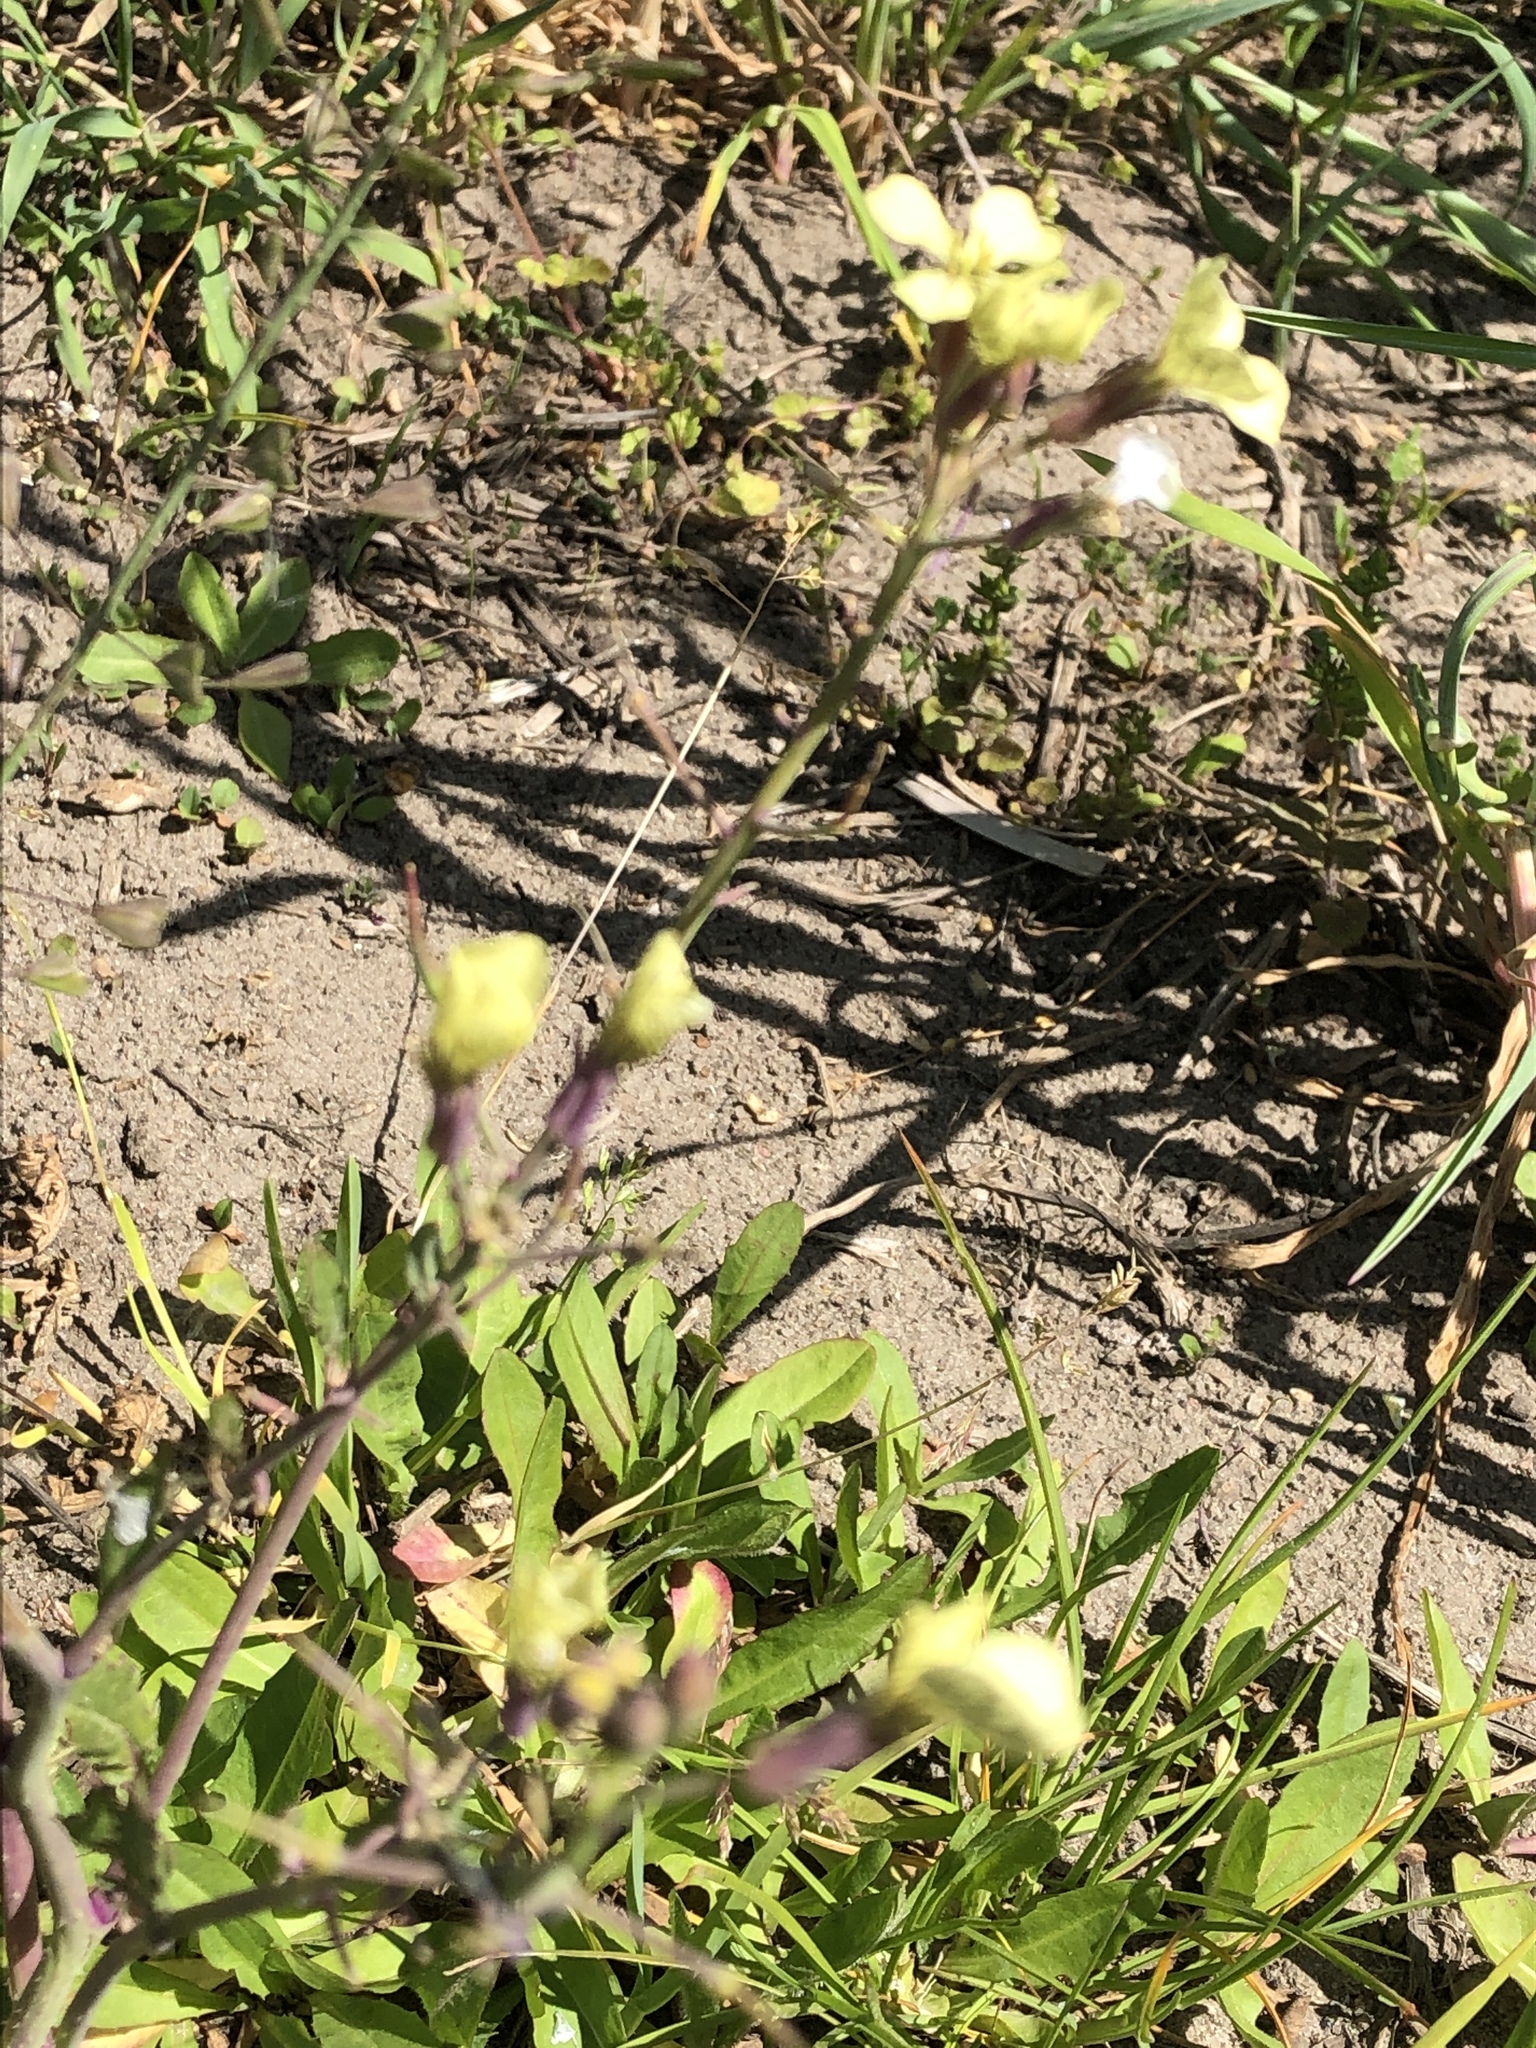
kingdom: Plantae
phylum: Tracheophyta
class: Magnoliopsida
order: Brassicales
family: Brassicaceae
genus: Raphanus
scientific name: Raphanus raphanistrum
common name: Wild radish
